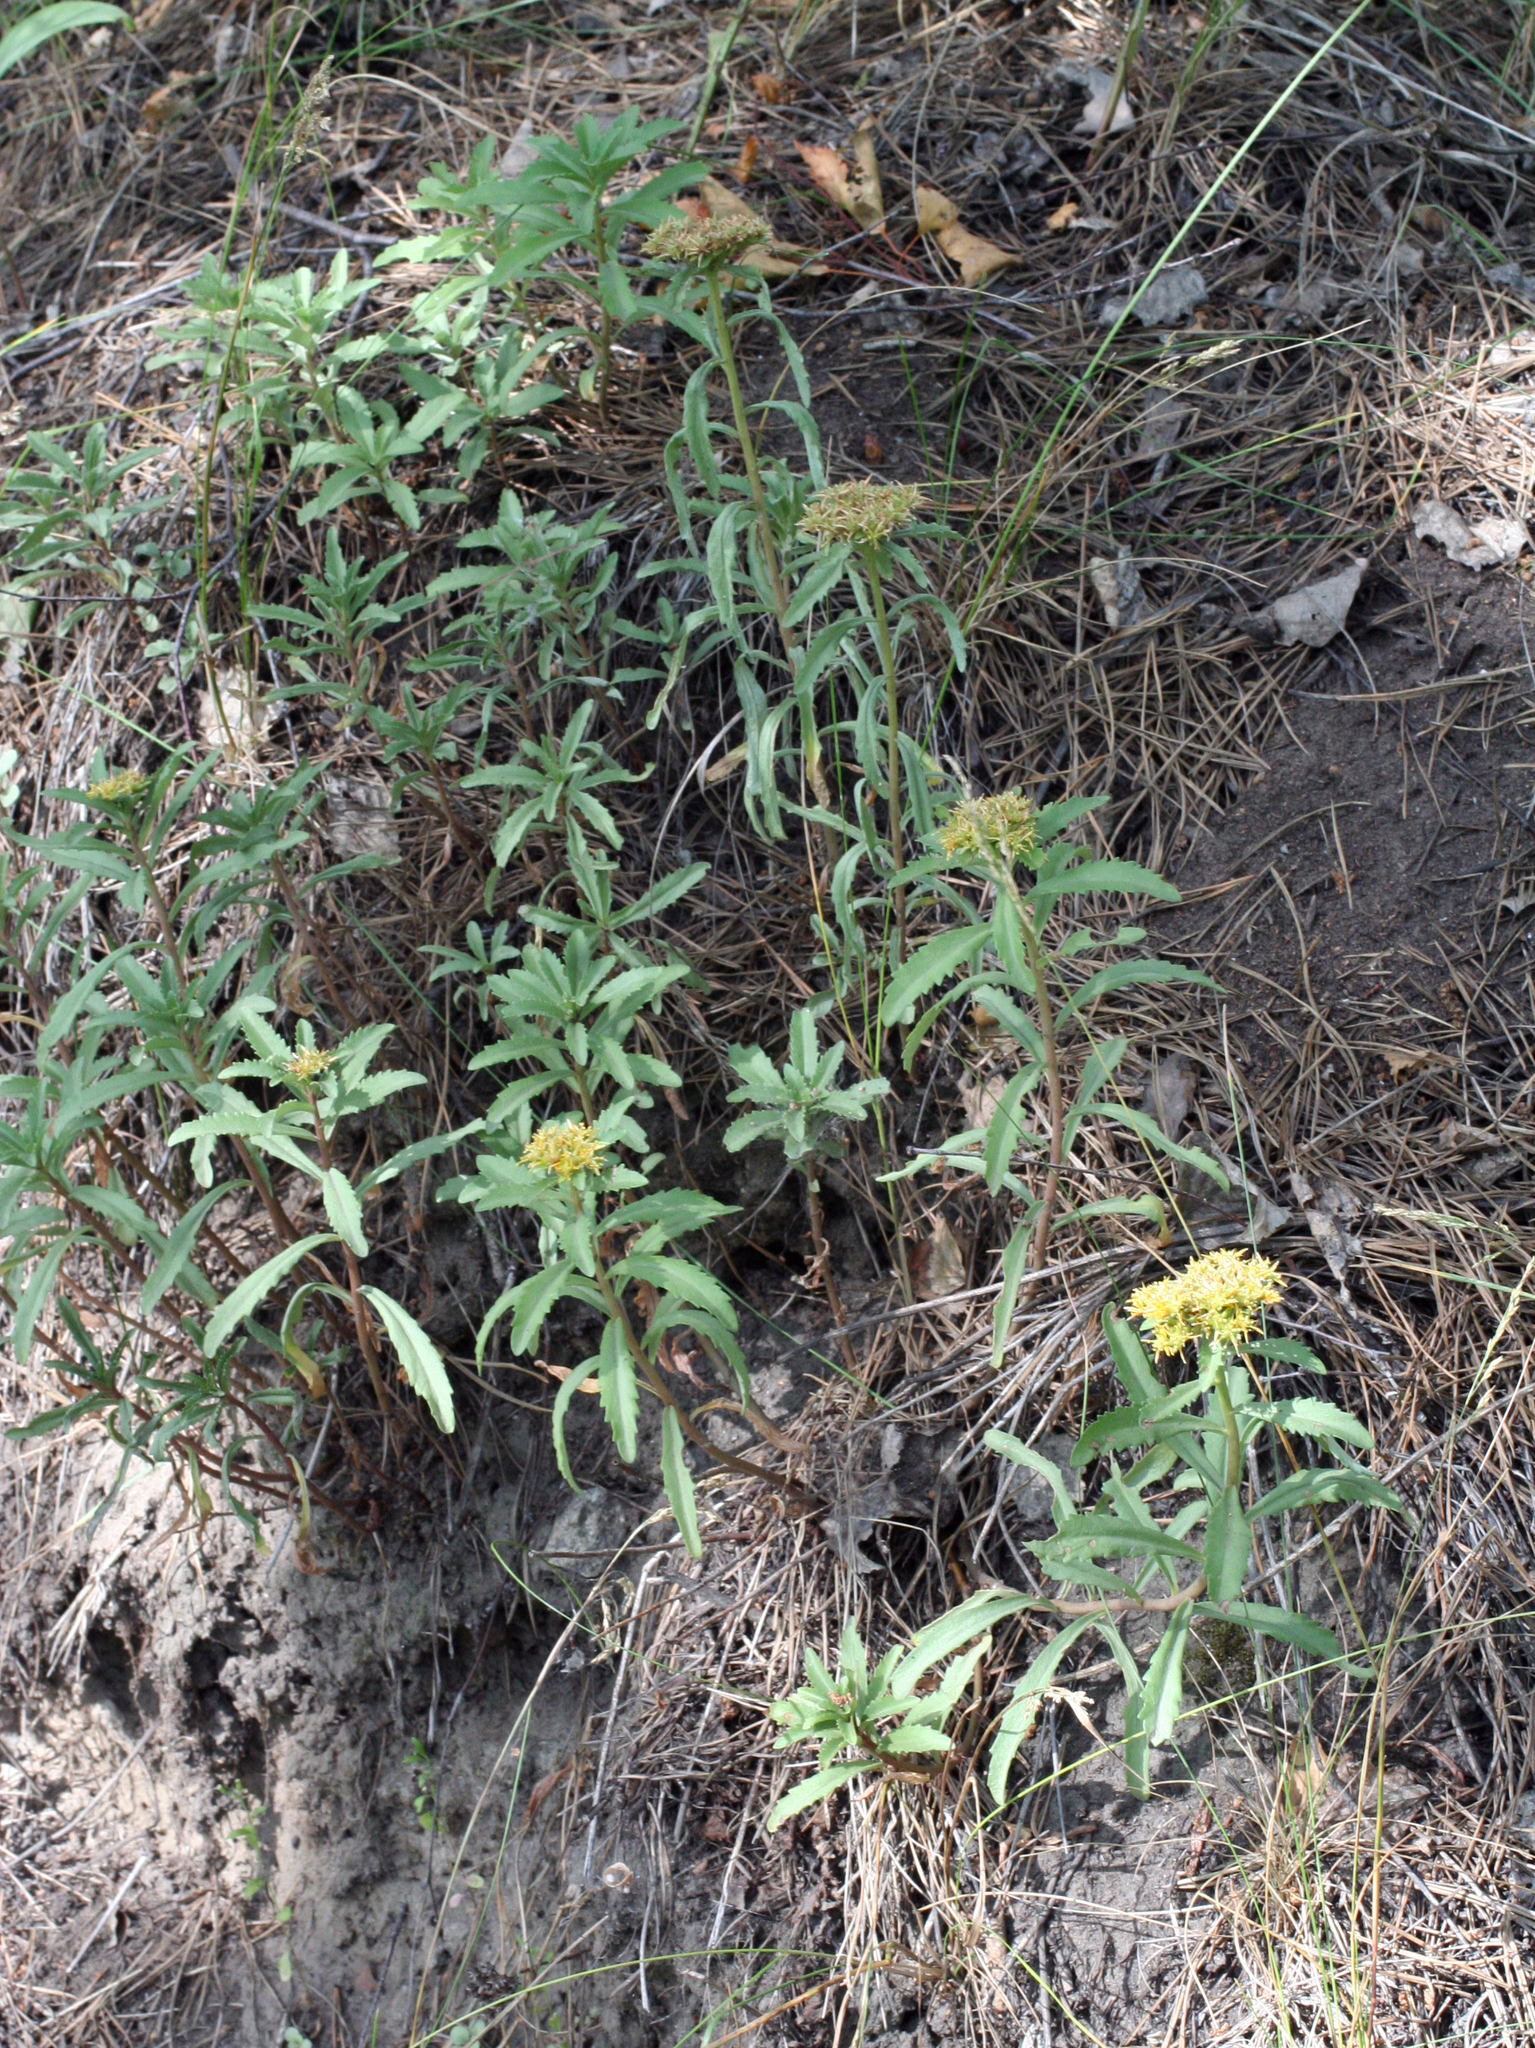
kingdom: Plantae
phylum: Tracheophyta
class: Magnoliopsida
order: Saxifragales
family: Crassulaceae
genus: Phedimus
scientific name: Phedimus aizoon
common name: Orpin aizoon
